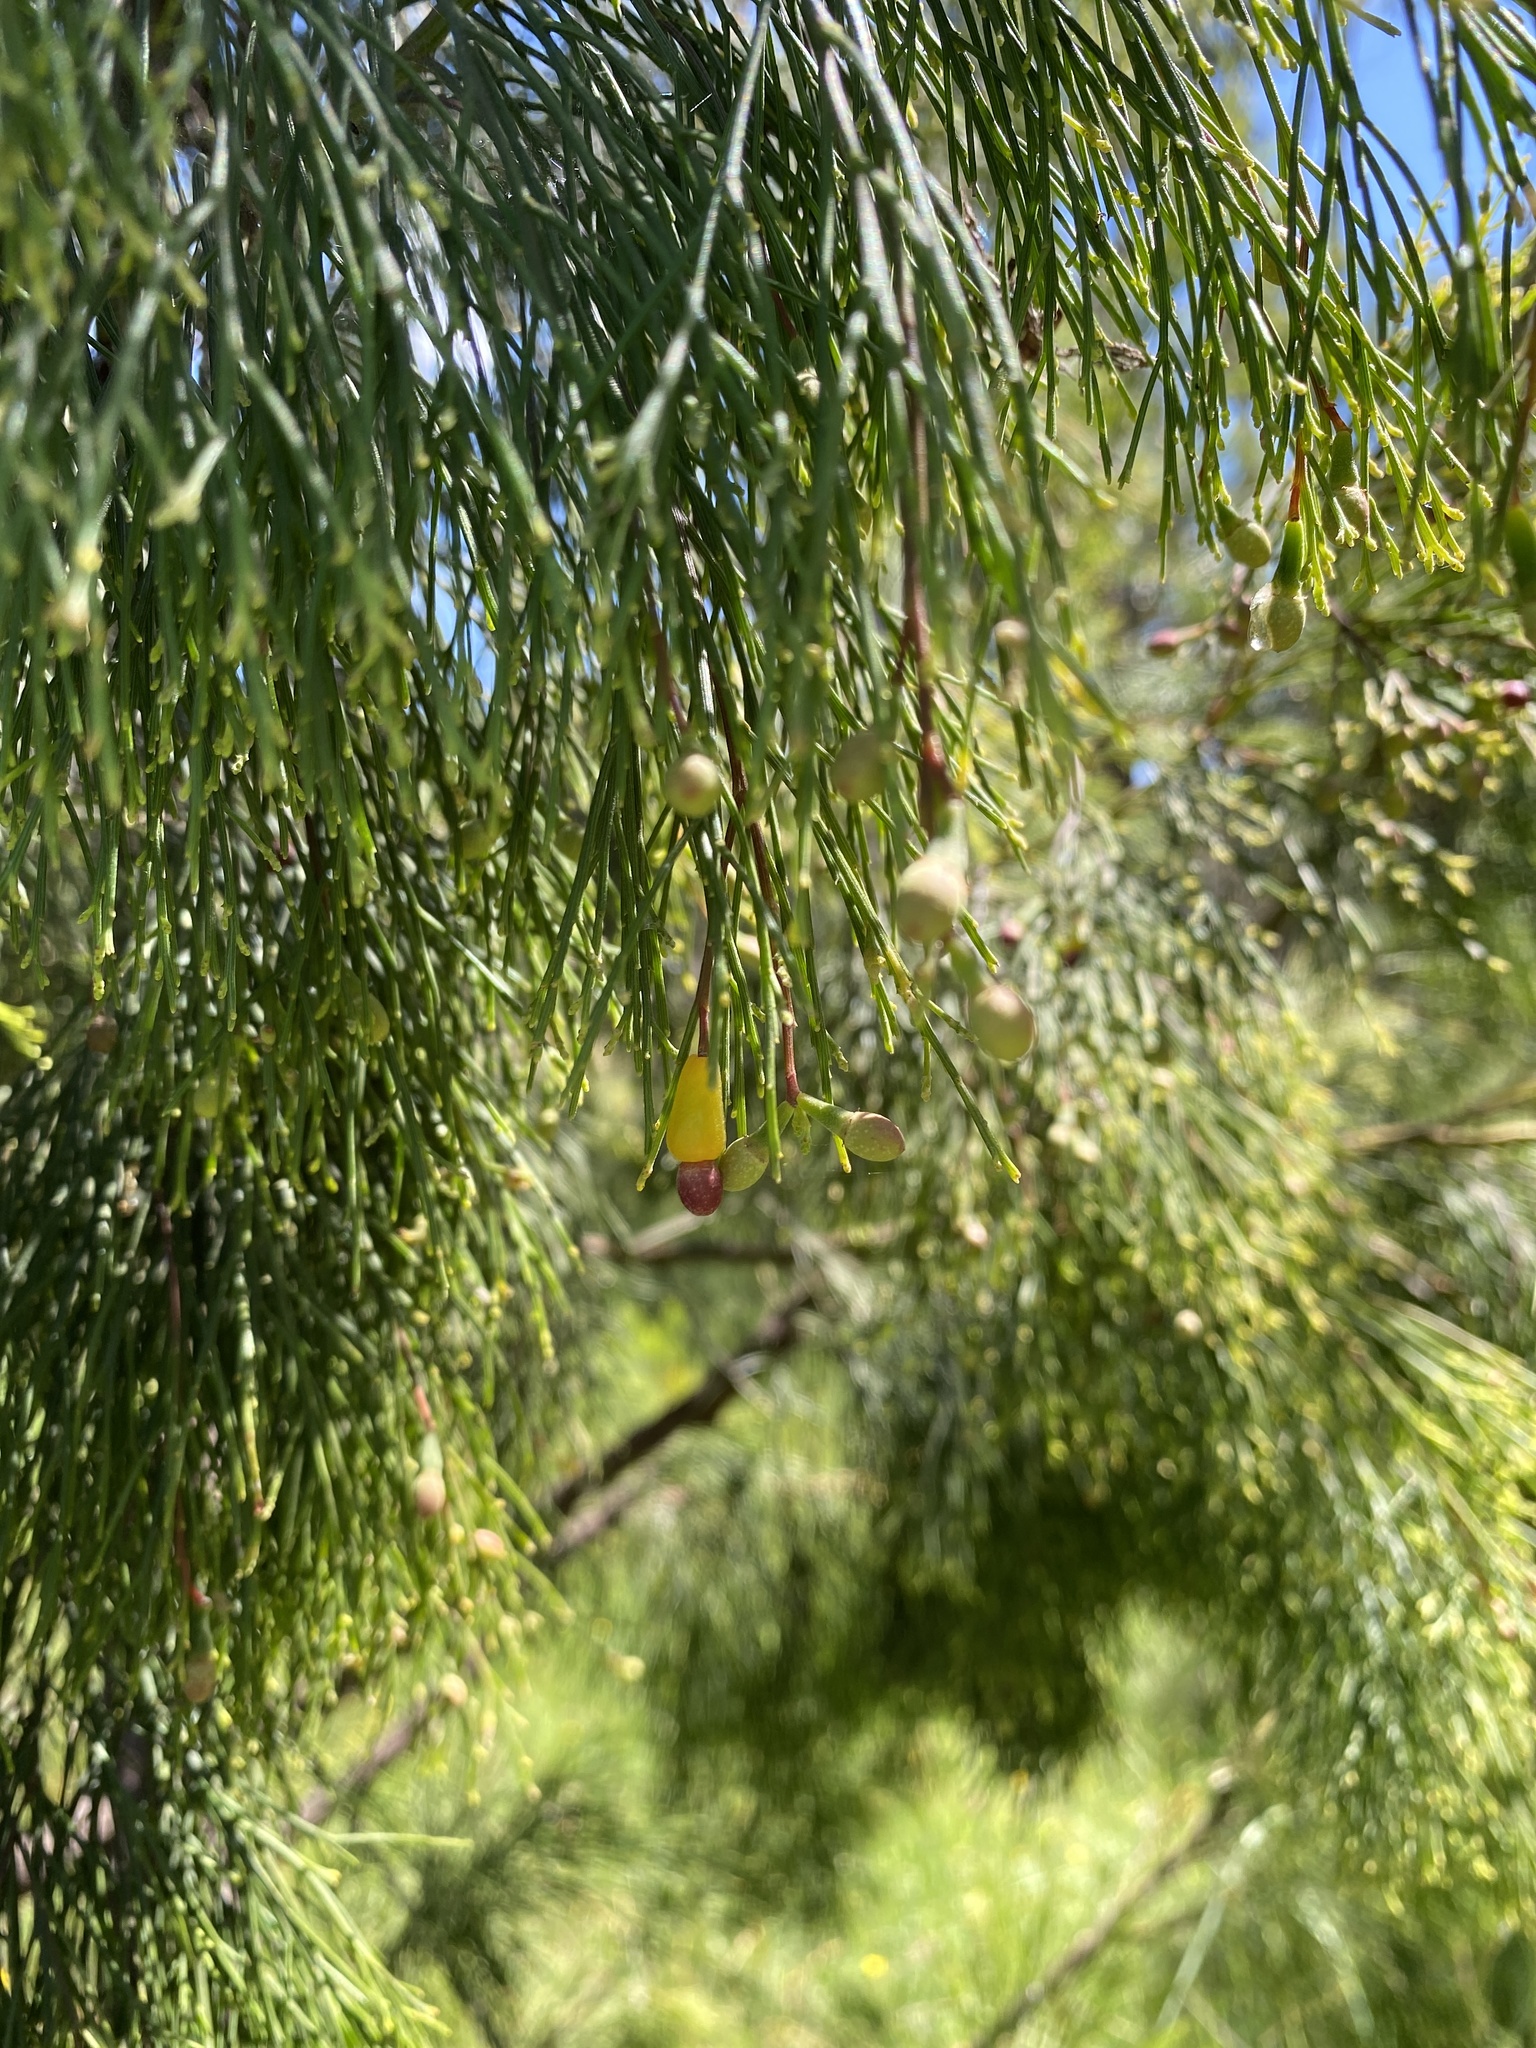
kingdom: Plantae
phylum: Tracheophyta
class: Magnoliopsida
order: Santalales
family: Santalaceae
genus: Exocarpos
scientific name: Exocarpos cupressiformis
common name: Cherry ballart
